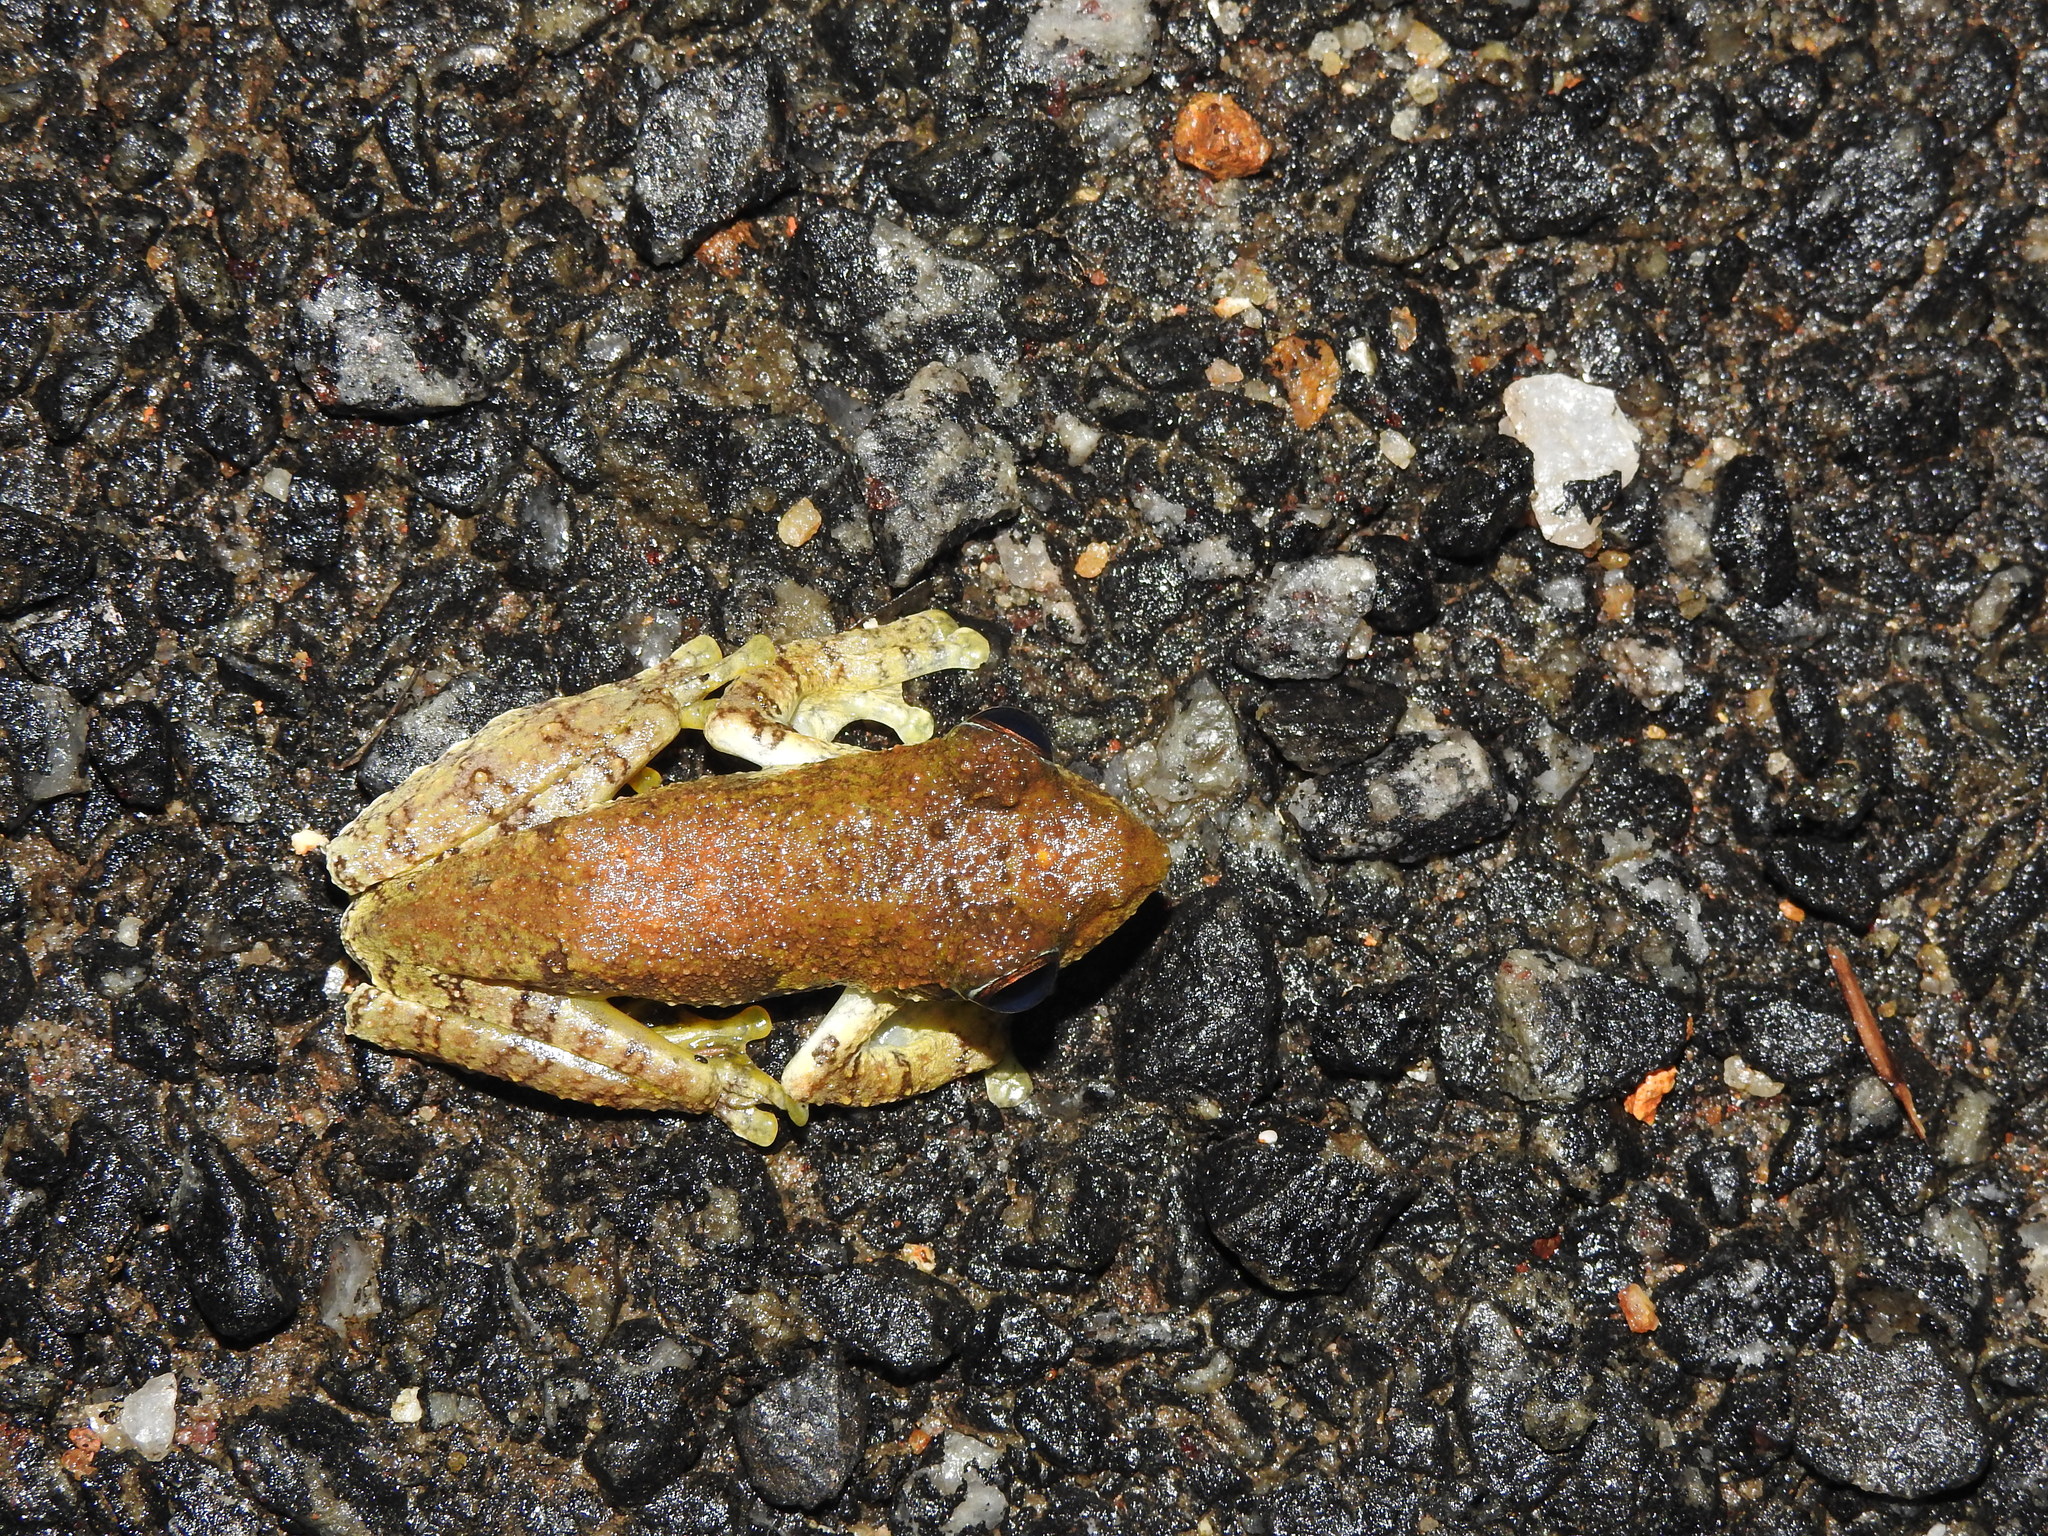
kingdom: Animalia
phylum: Chordata
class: Amphibia
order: Anura
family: Rhacophoridae
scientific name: Rhacophoridae
